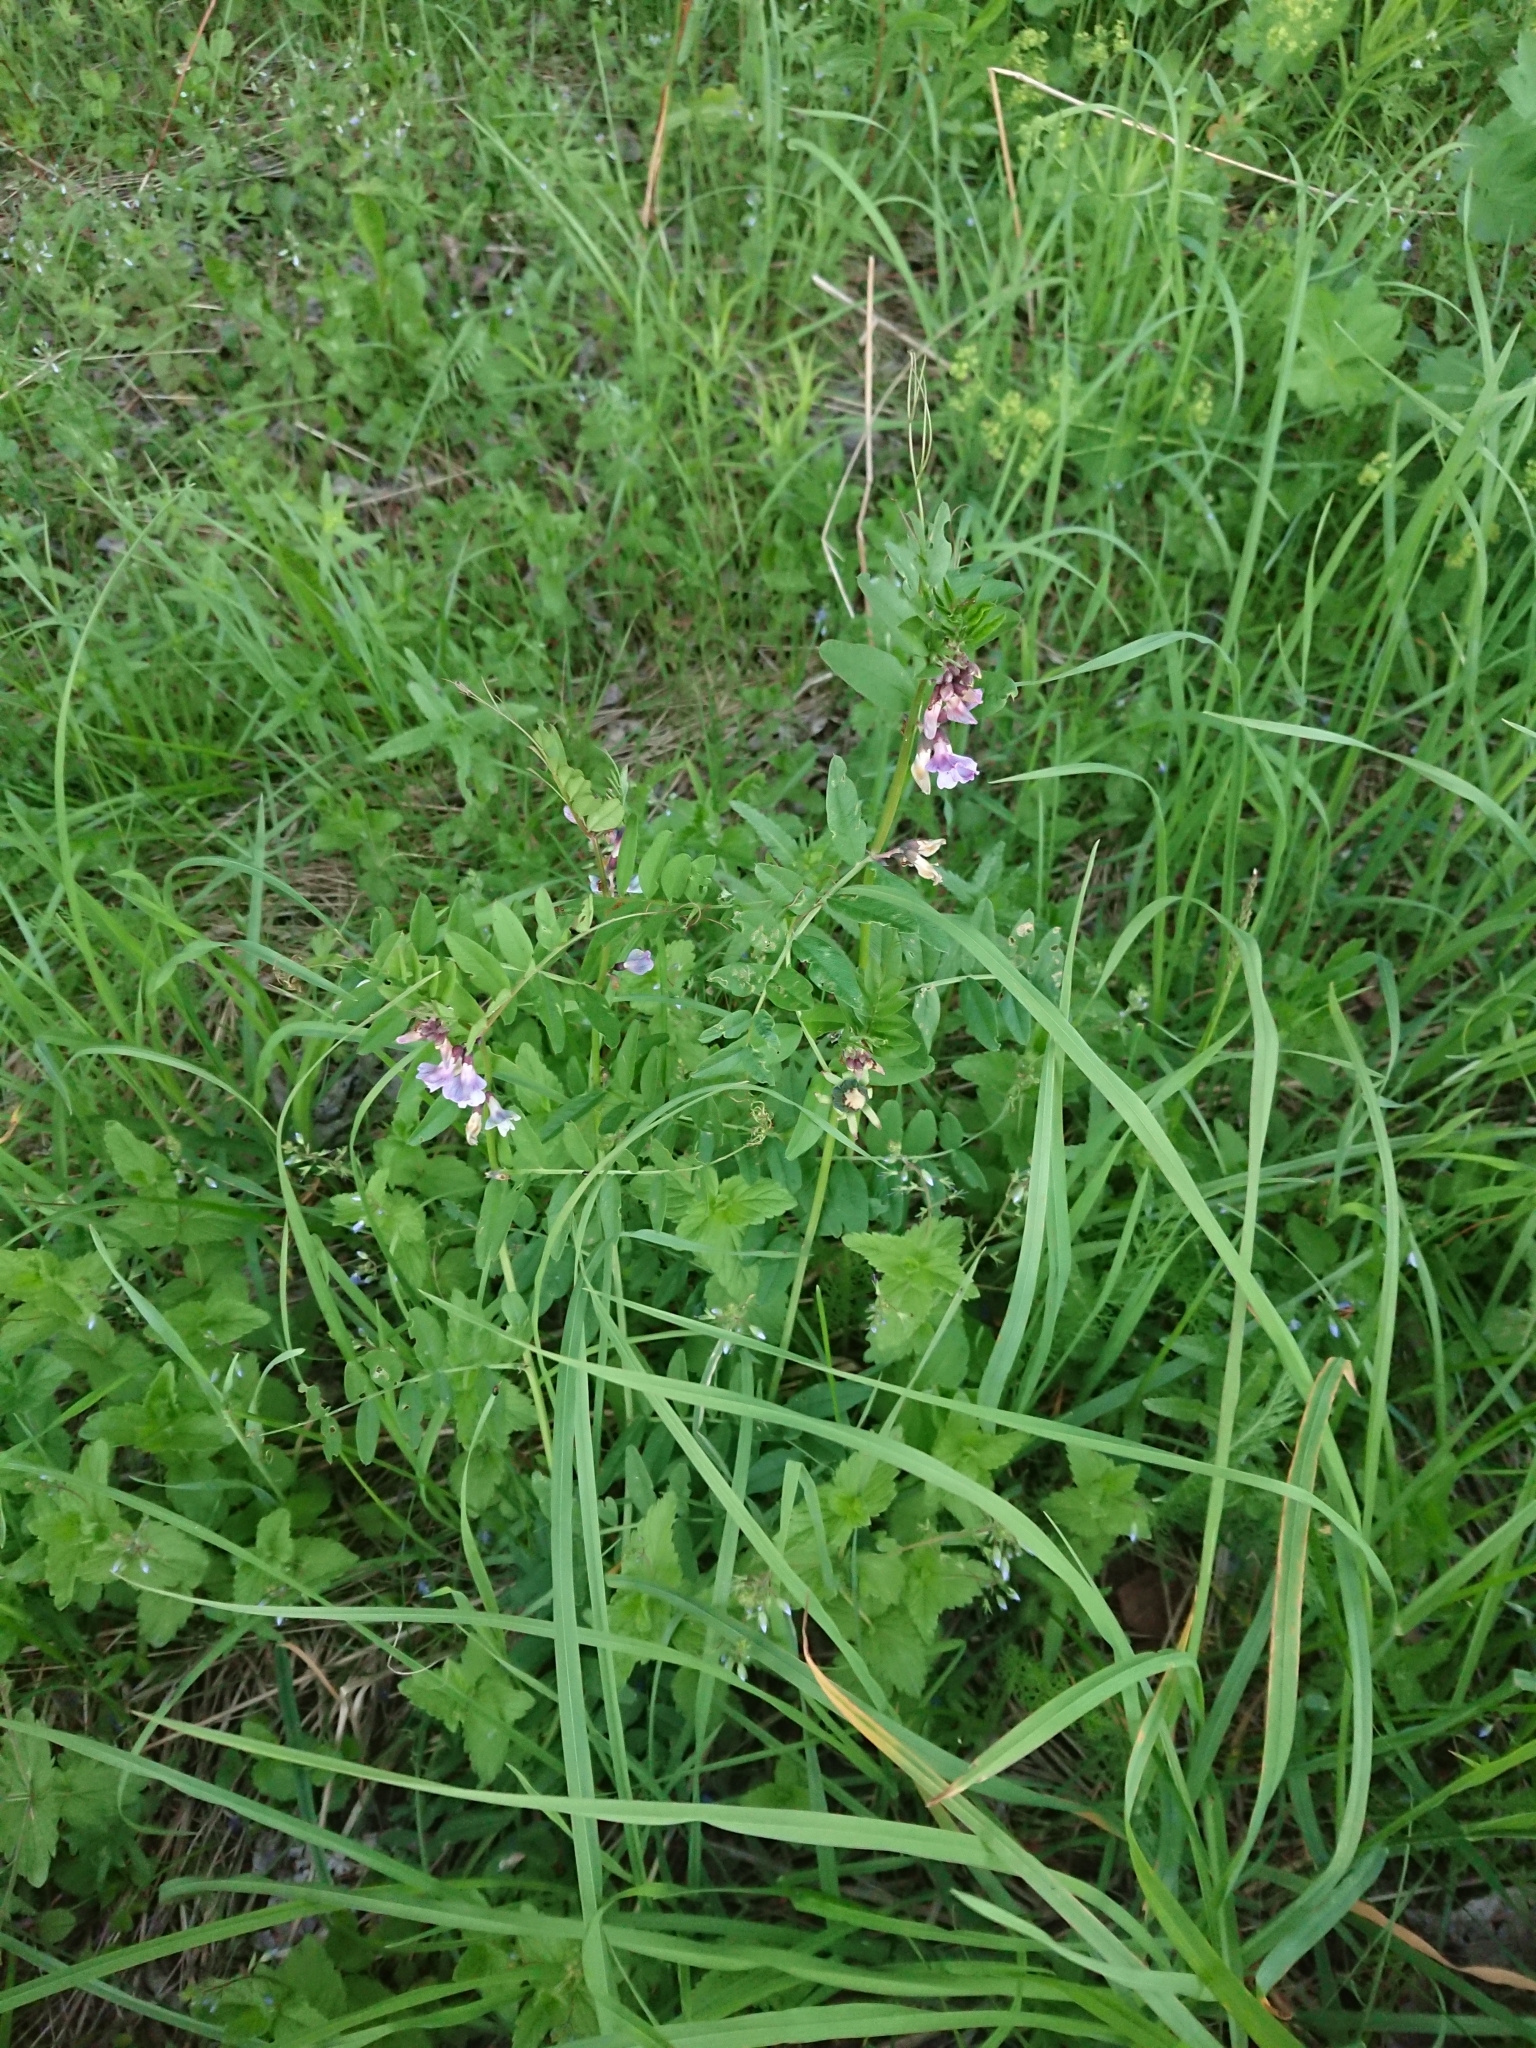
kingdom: Plantae
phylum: Tracheophyta
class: Magnoliopsida
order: Fabales
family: Fabaceae
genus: Vicia
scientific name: Vicia sepium
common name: Bush vetch
